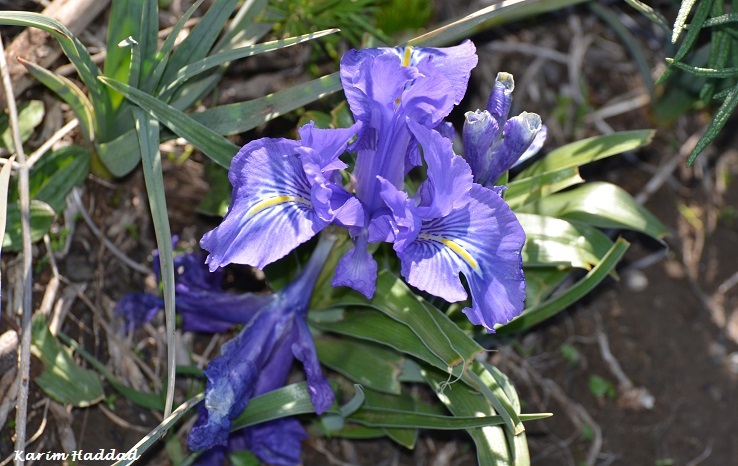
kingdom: Plantae
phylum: Tracheophyta
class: Liliopsida
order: Asparagales
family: Iridaceae
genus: Iris
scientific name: Iris planifolia
